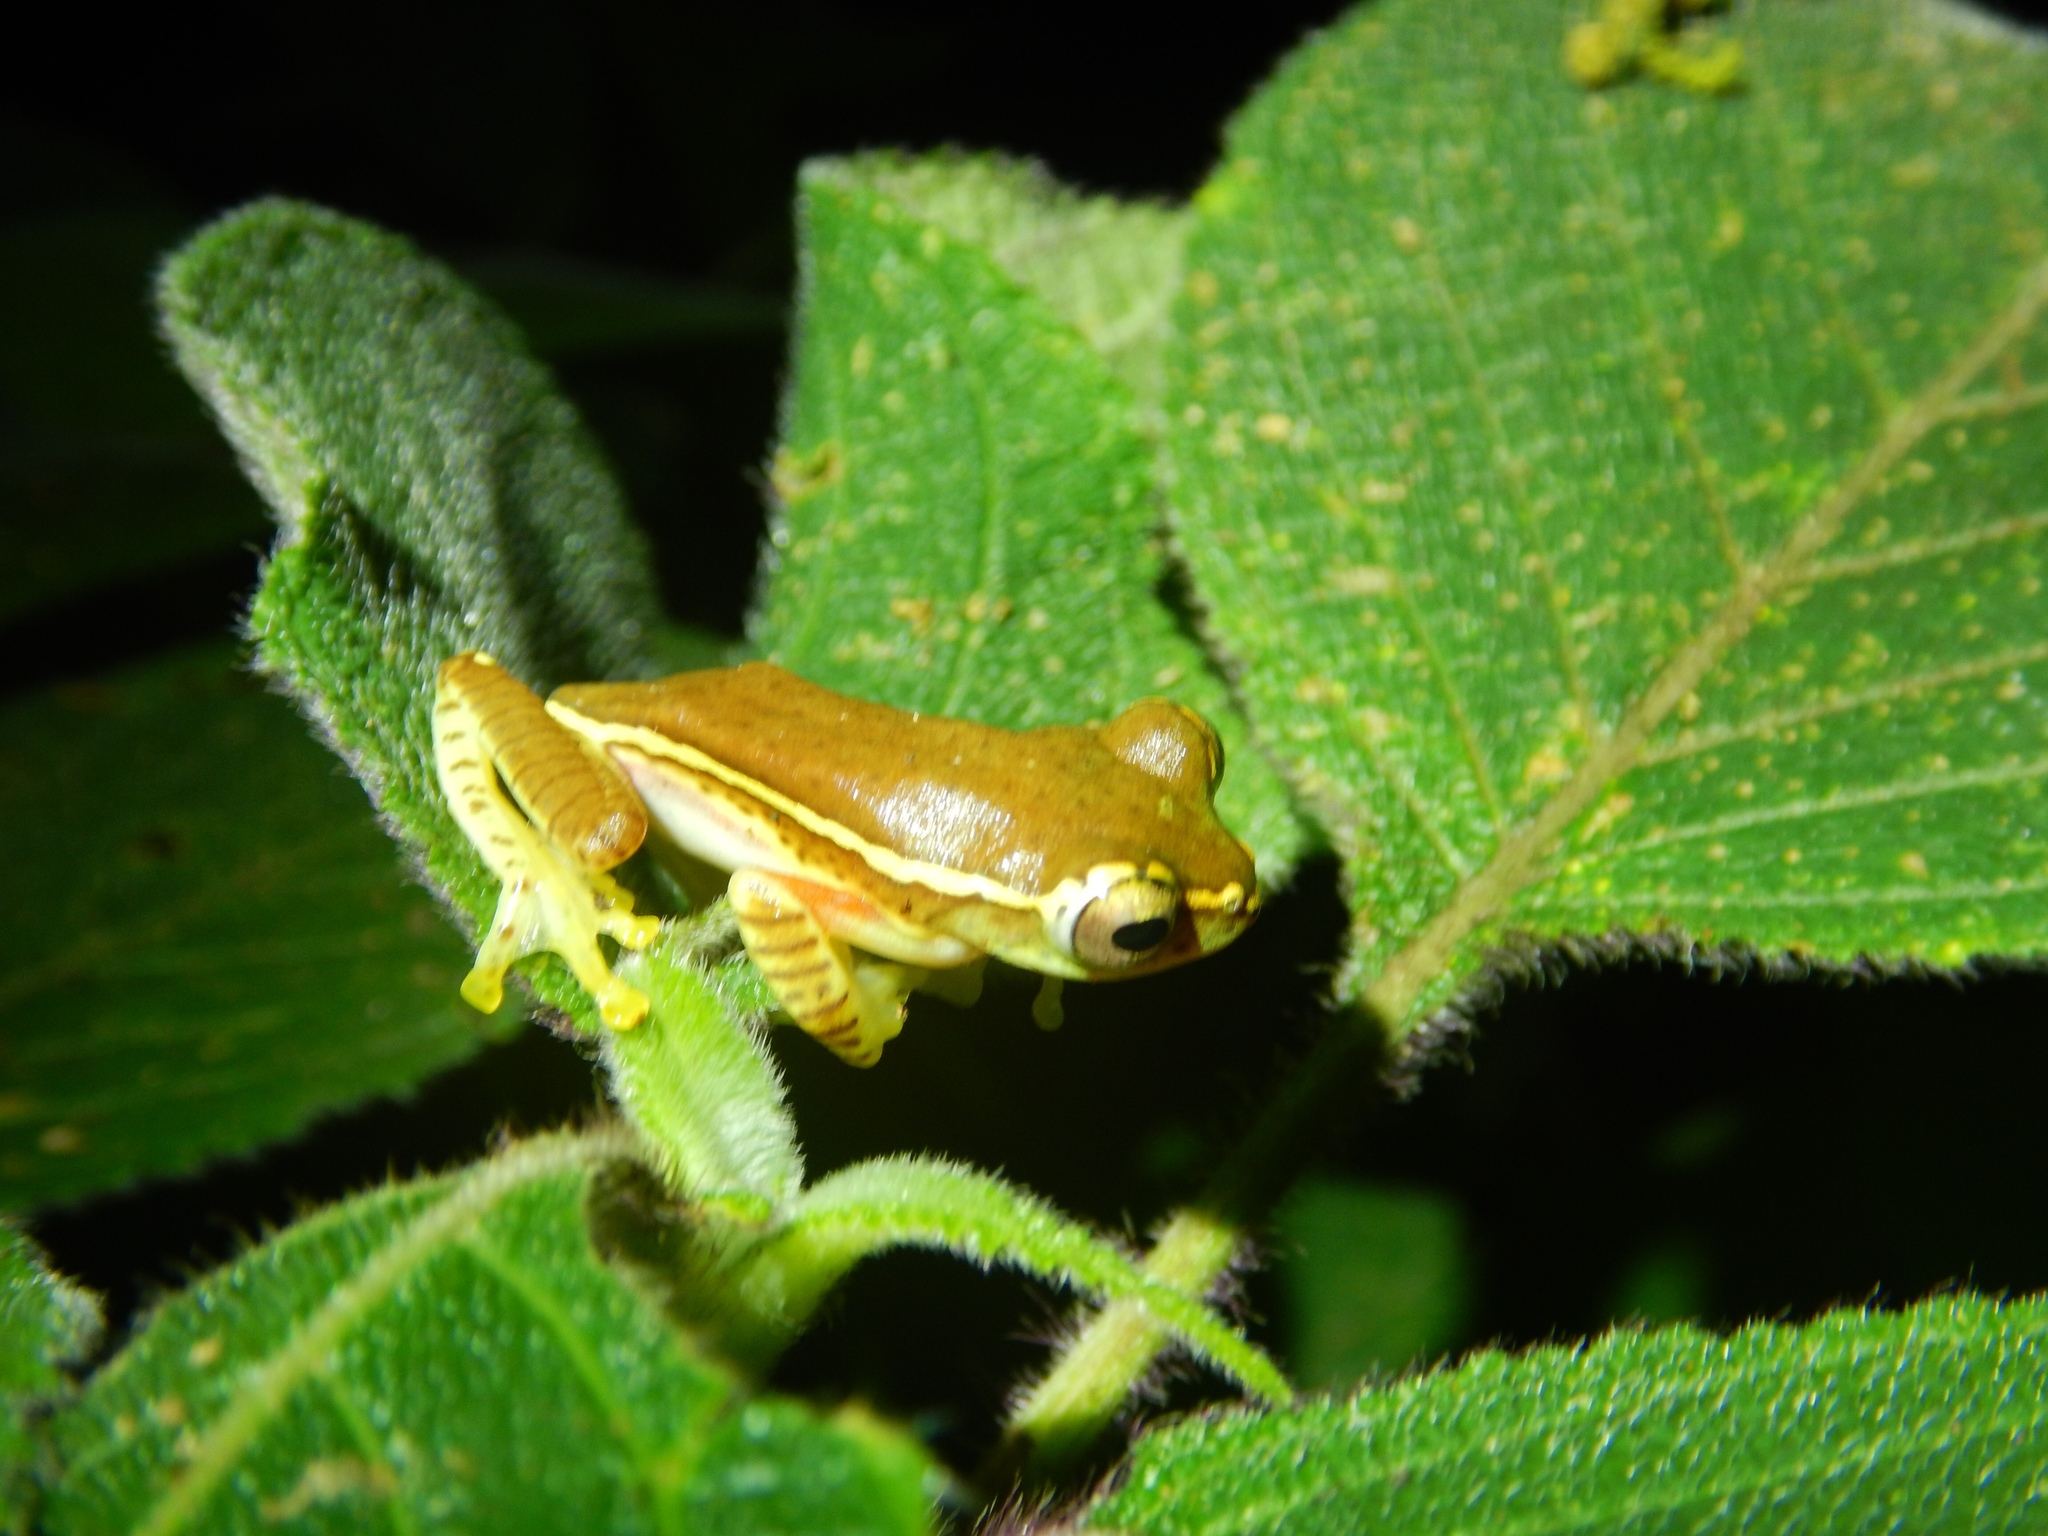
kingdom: Animalia
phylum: Chordata
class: Amphibia
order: Anura
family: Rhacophoridae
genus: Rhacophorus
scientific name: Rhacophorus lateralis
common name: Boulenger's tree frog
